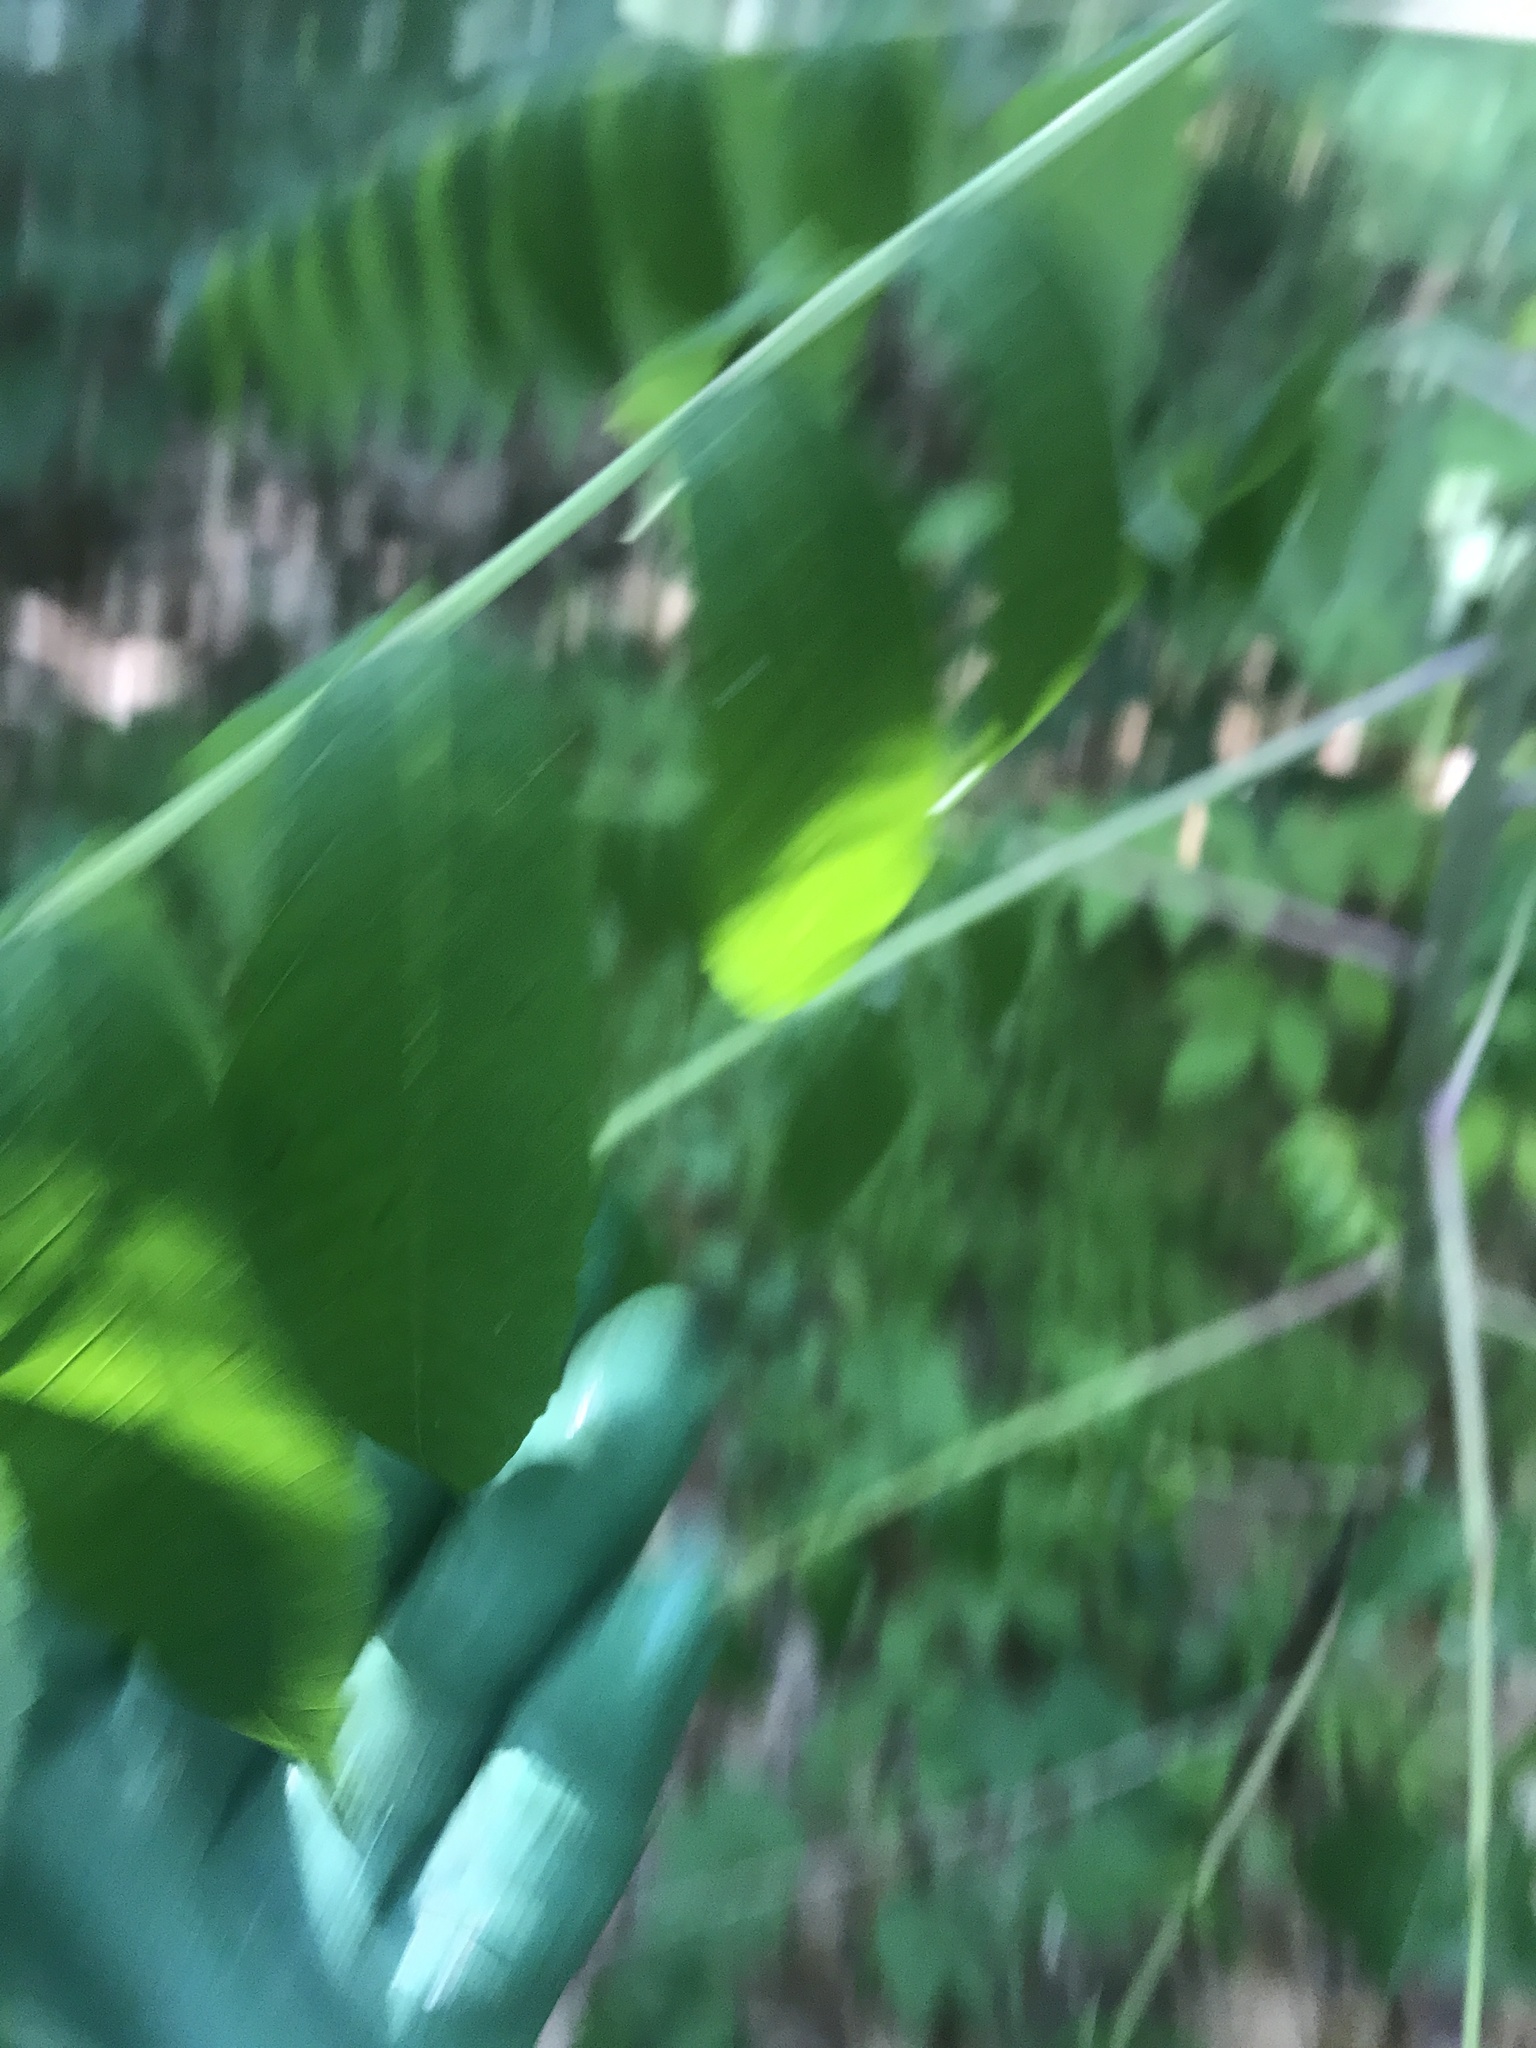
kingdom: Plantae
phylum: Tracheophyta
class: Magnoliopsida
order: Sapindales
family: Anacardiaceae
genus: Rhus
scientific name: Rhus glabra
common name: Scarlet sumac
